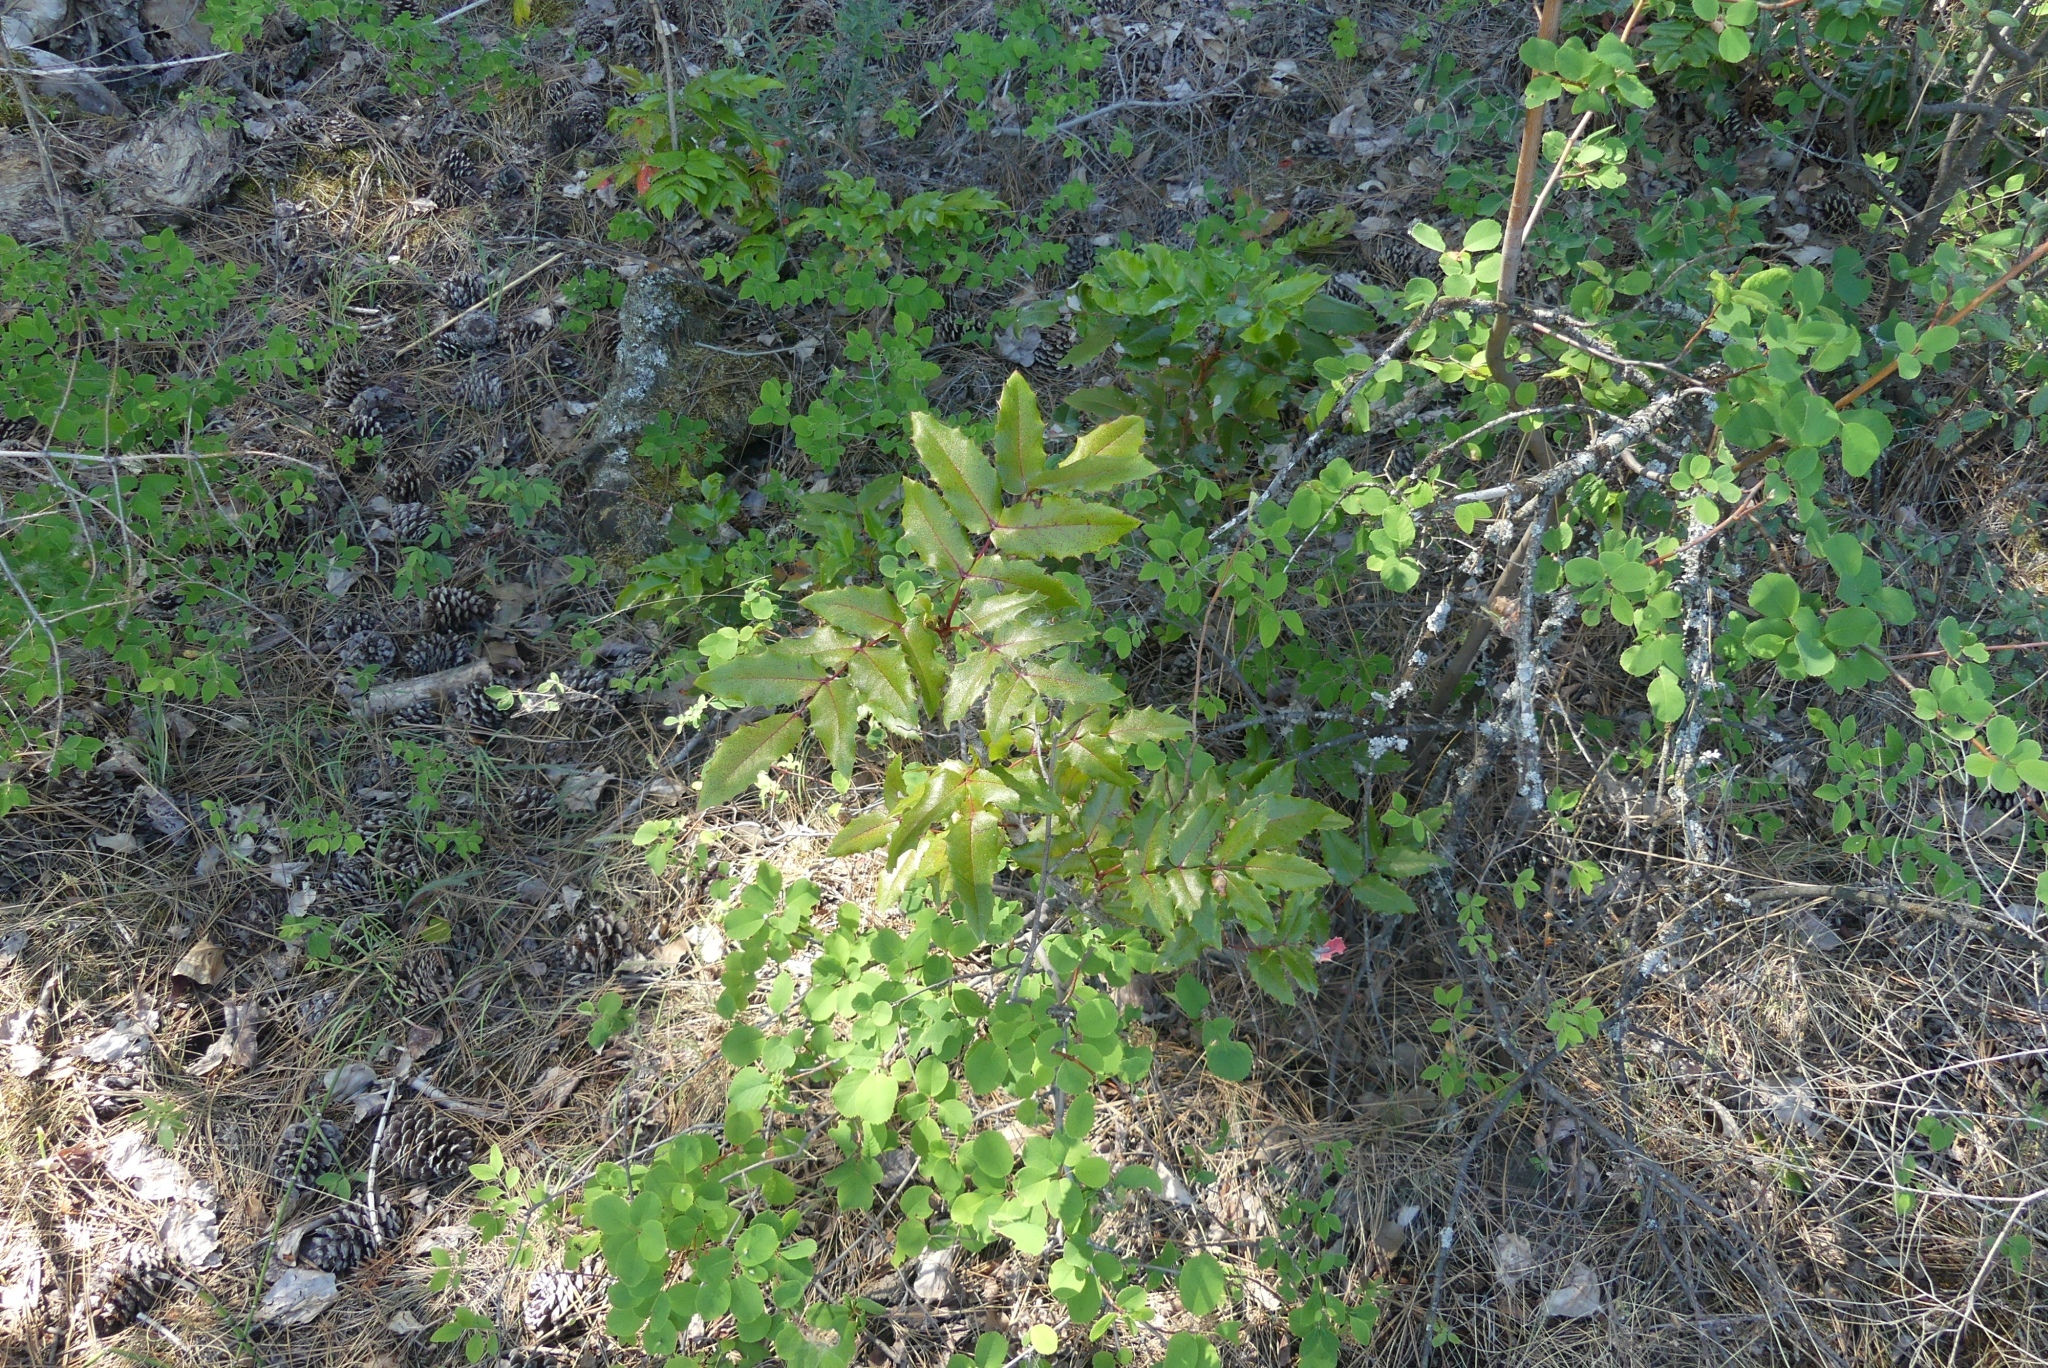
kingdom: Plantae
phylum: Tracheophyta
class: Magnoliopsida
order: Ranunculales
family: Berberidaceae
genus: Mahonia
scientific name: Mahonia aquifolium
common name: Oregon-grape
